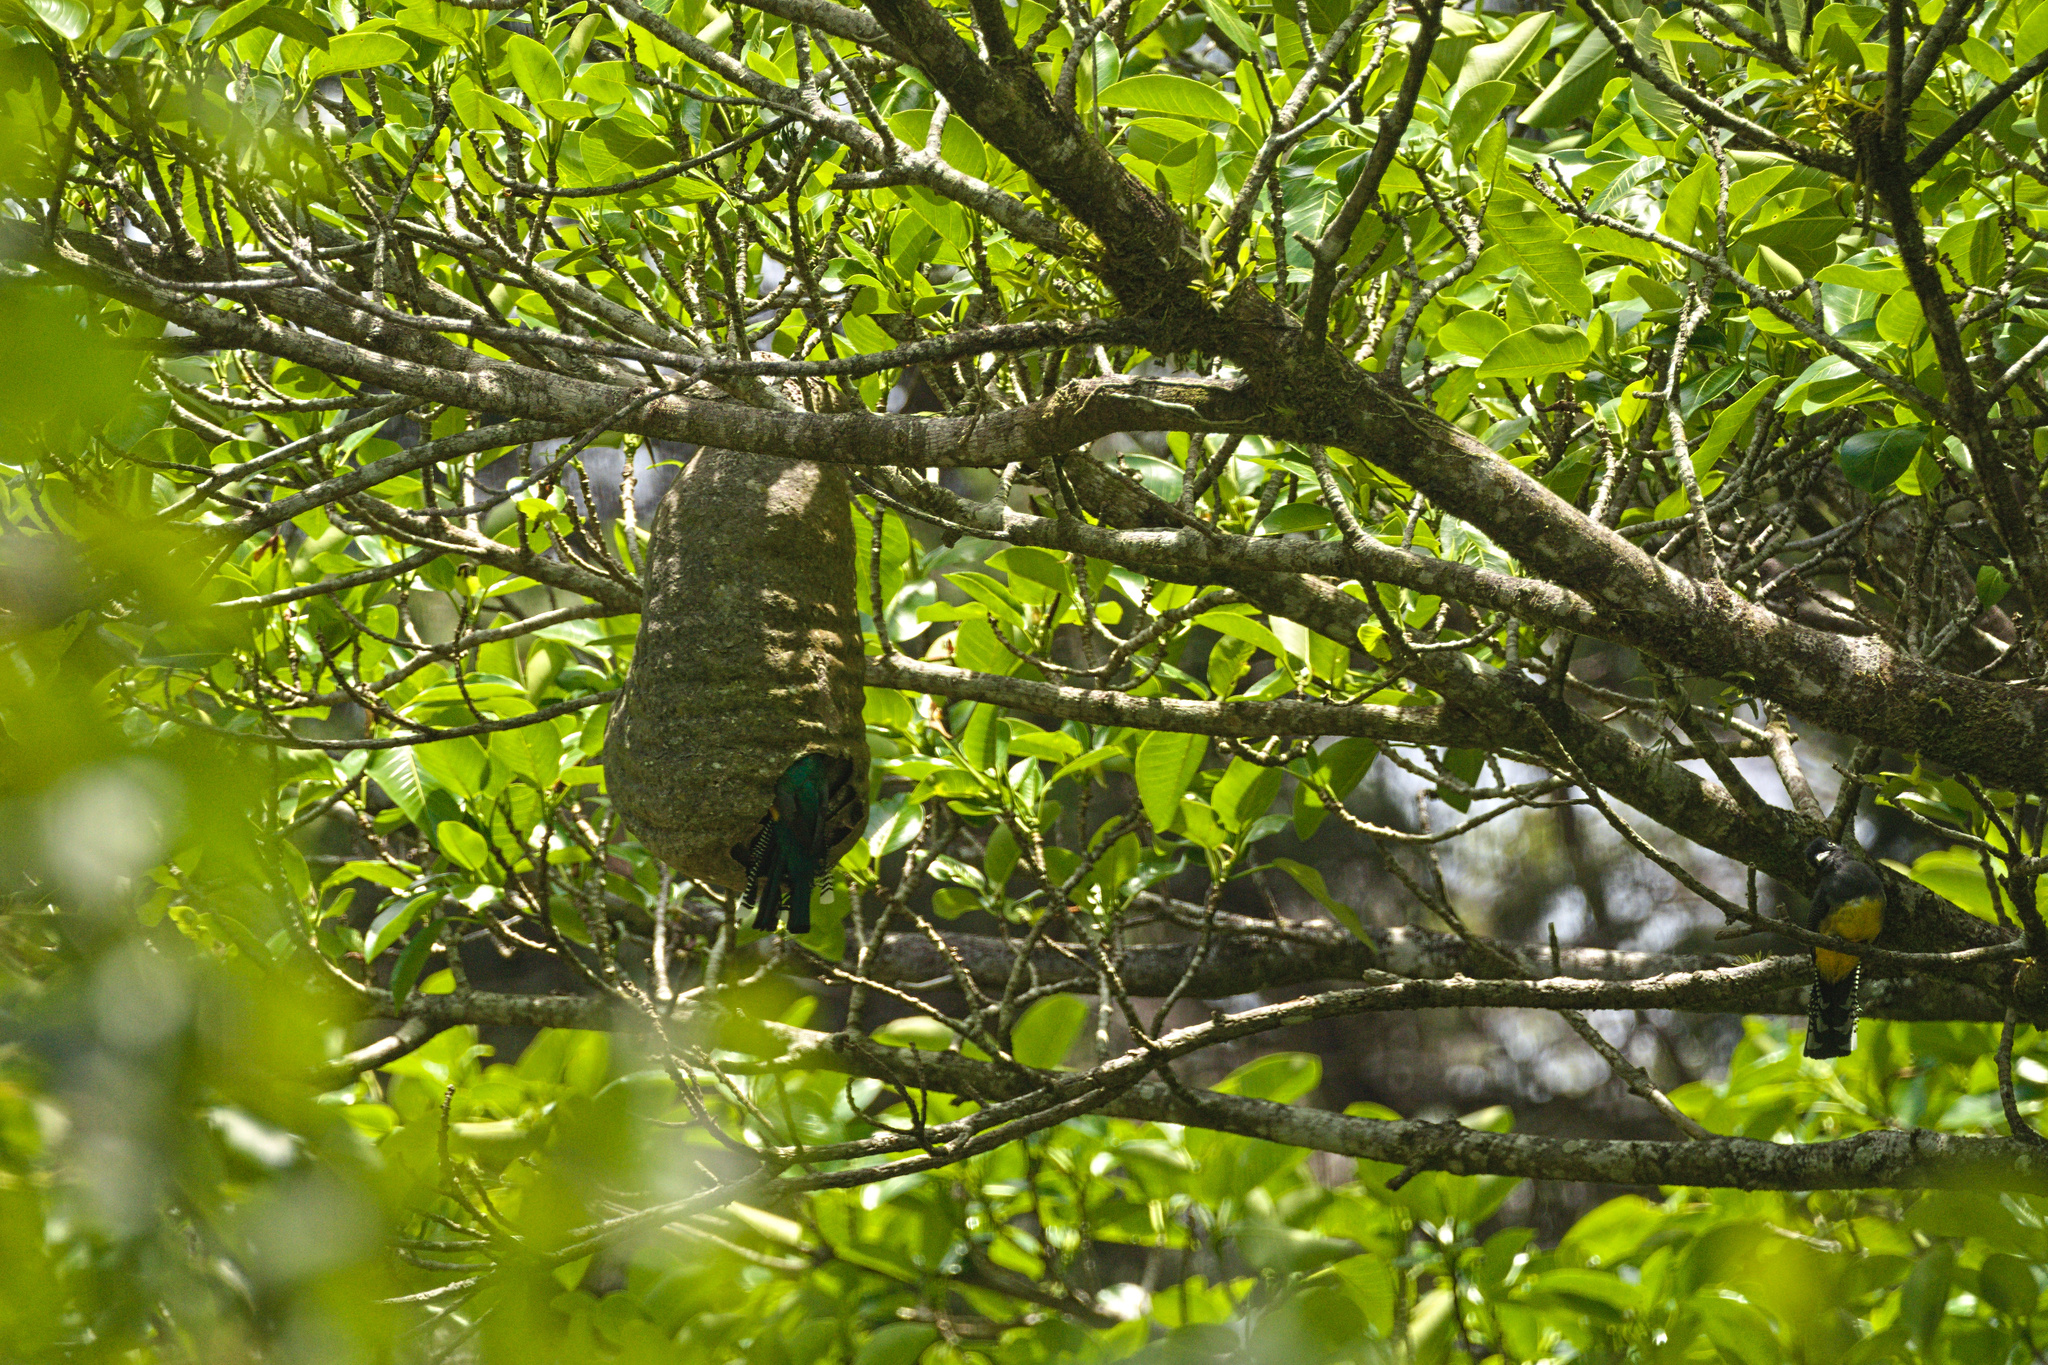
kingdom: Animalia
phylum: Chordata
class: Aves
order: Trogoniformes
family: Trogonidae
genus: Trogon
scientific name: Trogon caligatus
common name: Gartered trogon
